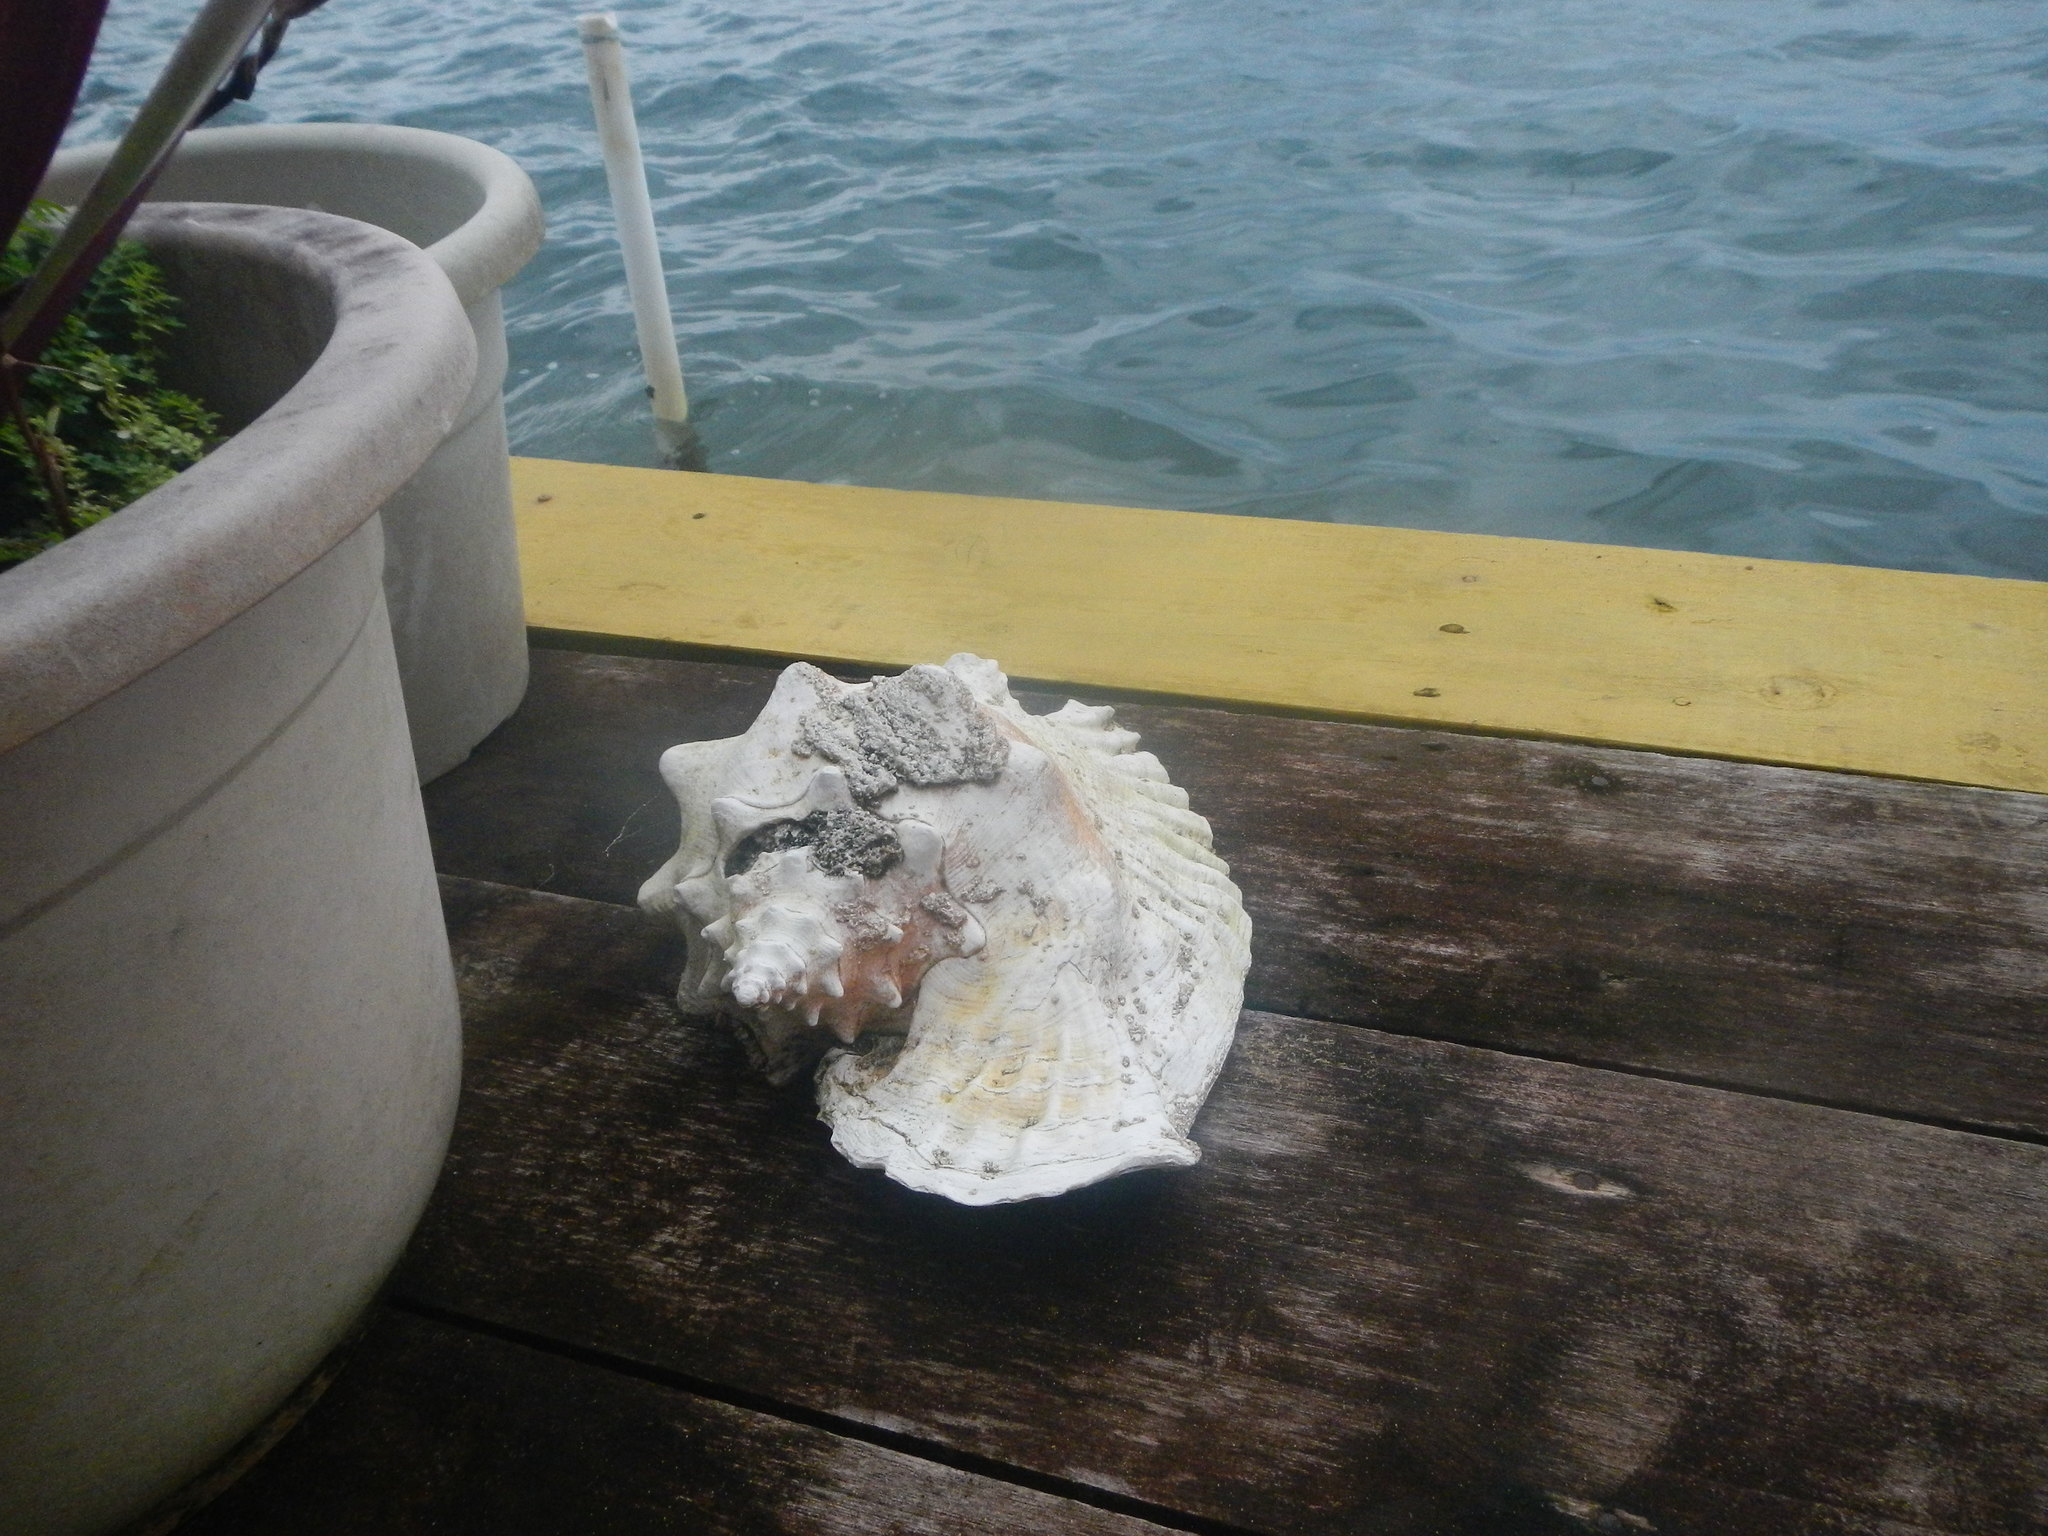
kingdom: Animalia
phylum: Mollusca
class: Gastropoda
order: Littorinimorpha
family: Strombidae
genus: Aliger
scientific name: Aliger gigas
